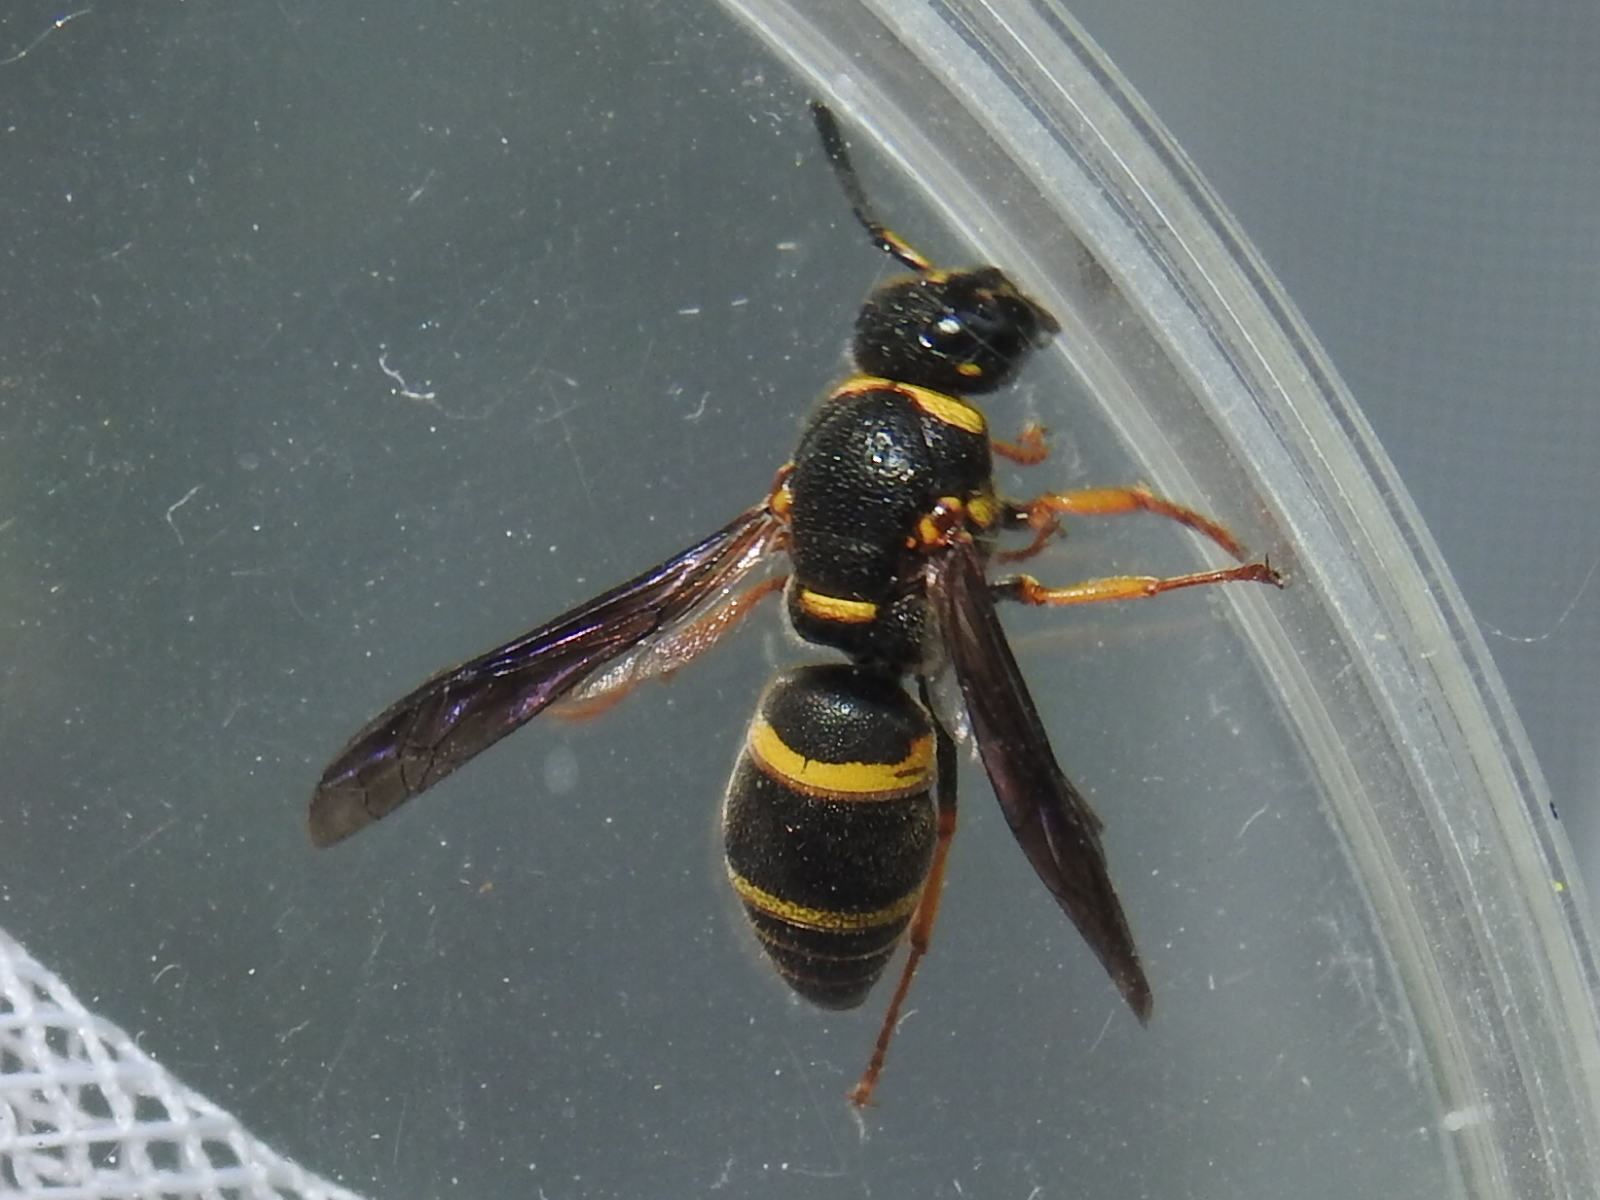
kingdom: Animalia
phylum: Arthropoda
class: Insecta
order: Hymenoptera
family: Eumenidae
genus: Euodynerus
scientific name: Euodynerus foraminatus
